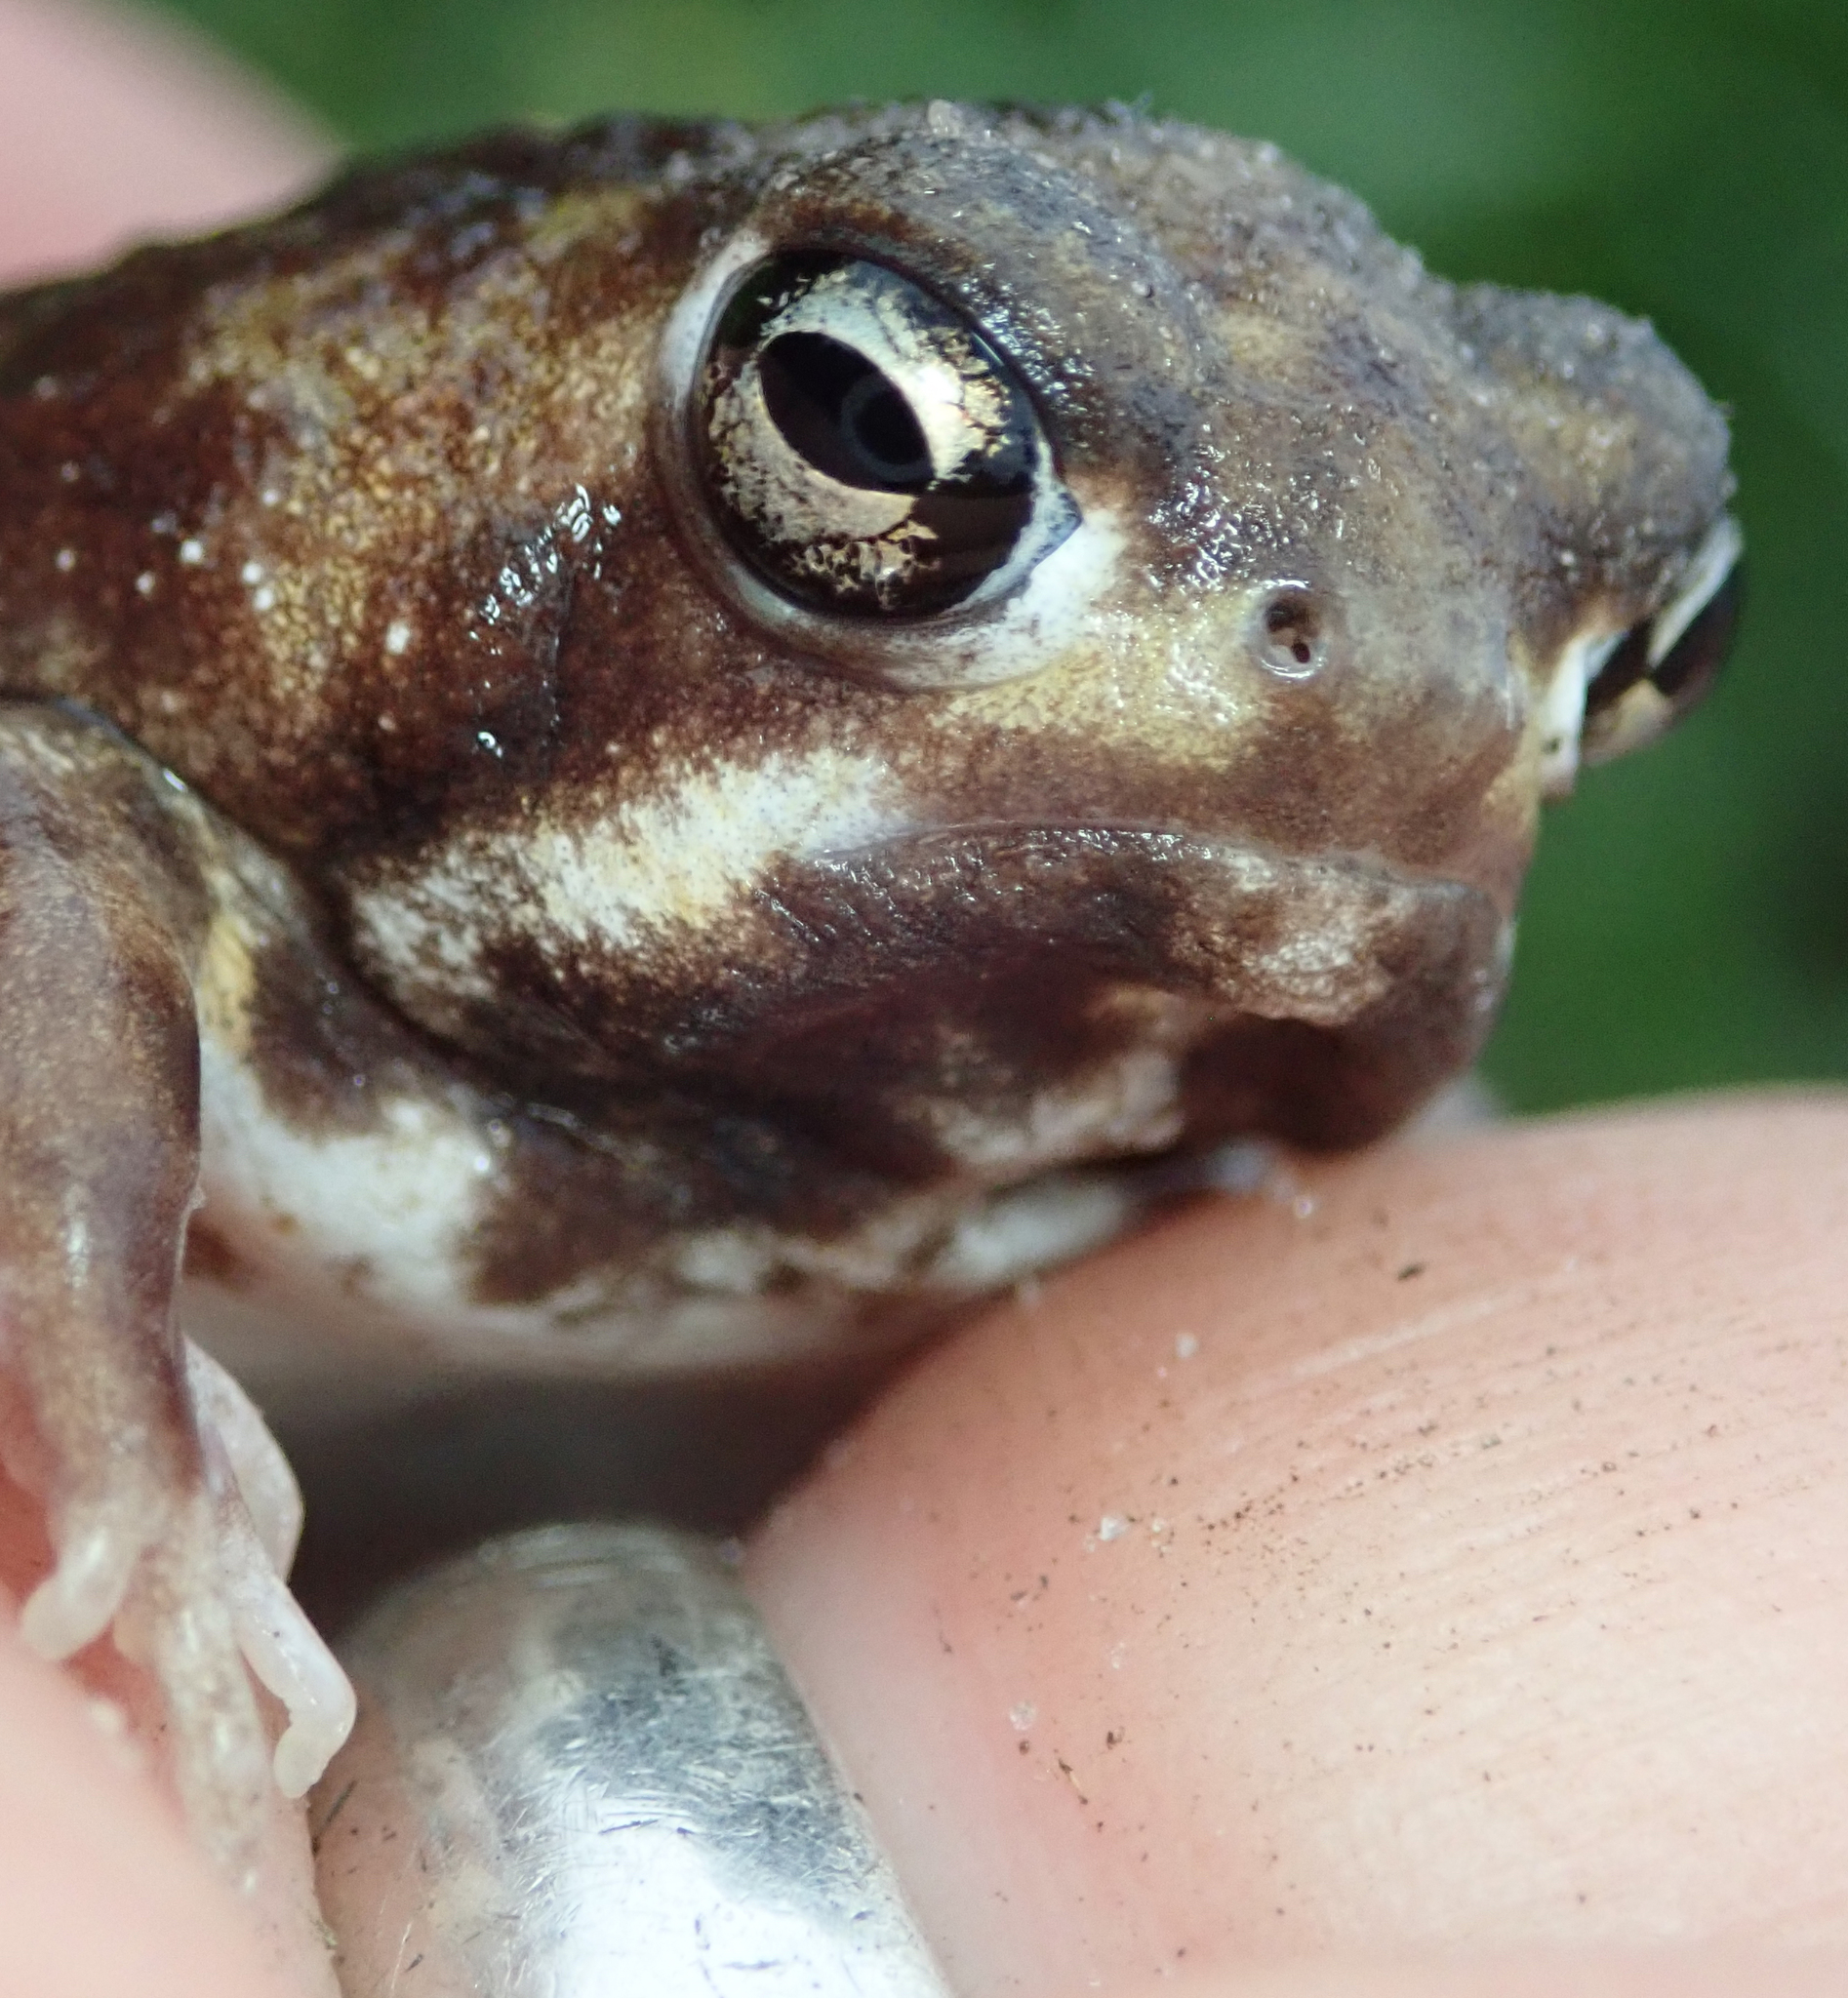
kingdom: Animalia
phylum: Chordata
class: Amphibia
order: Anura
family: Brevicipitidae
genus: Breviceps
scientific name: Breviceps adspersus
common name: Common rain frog
